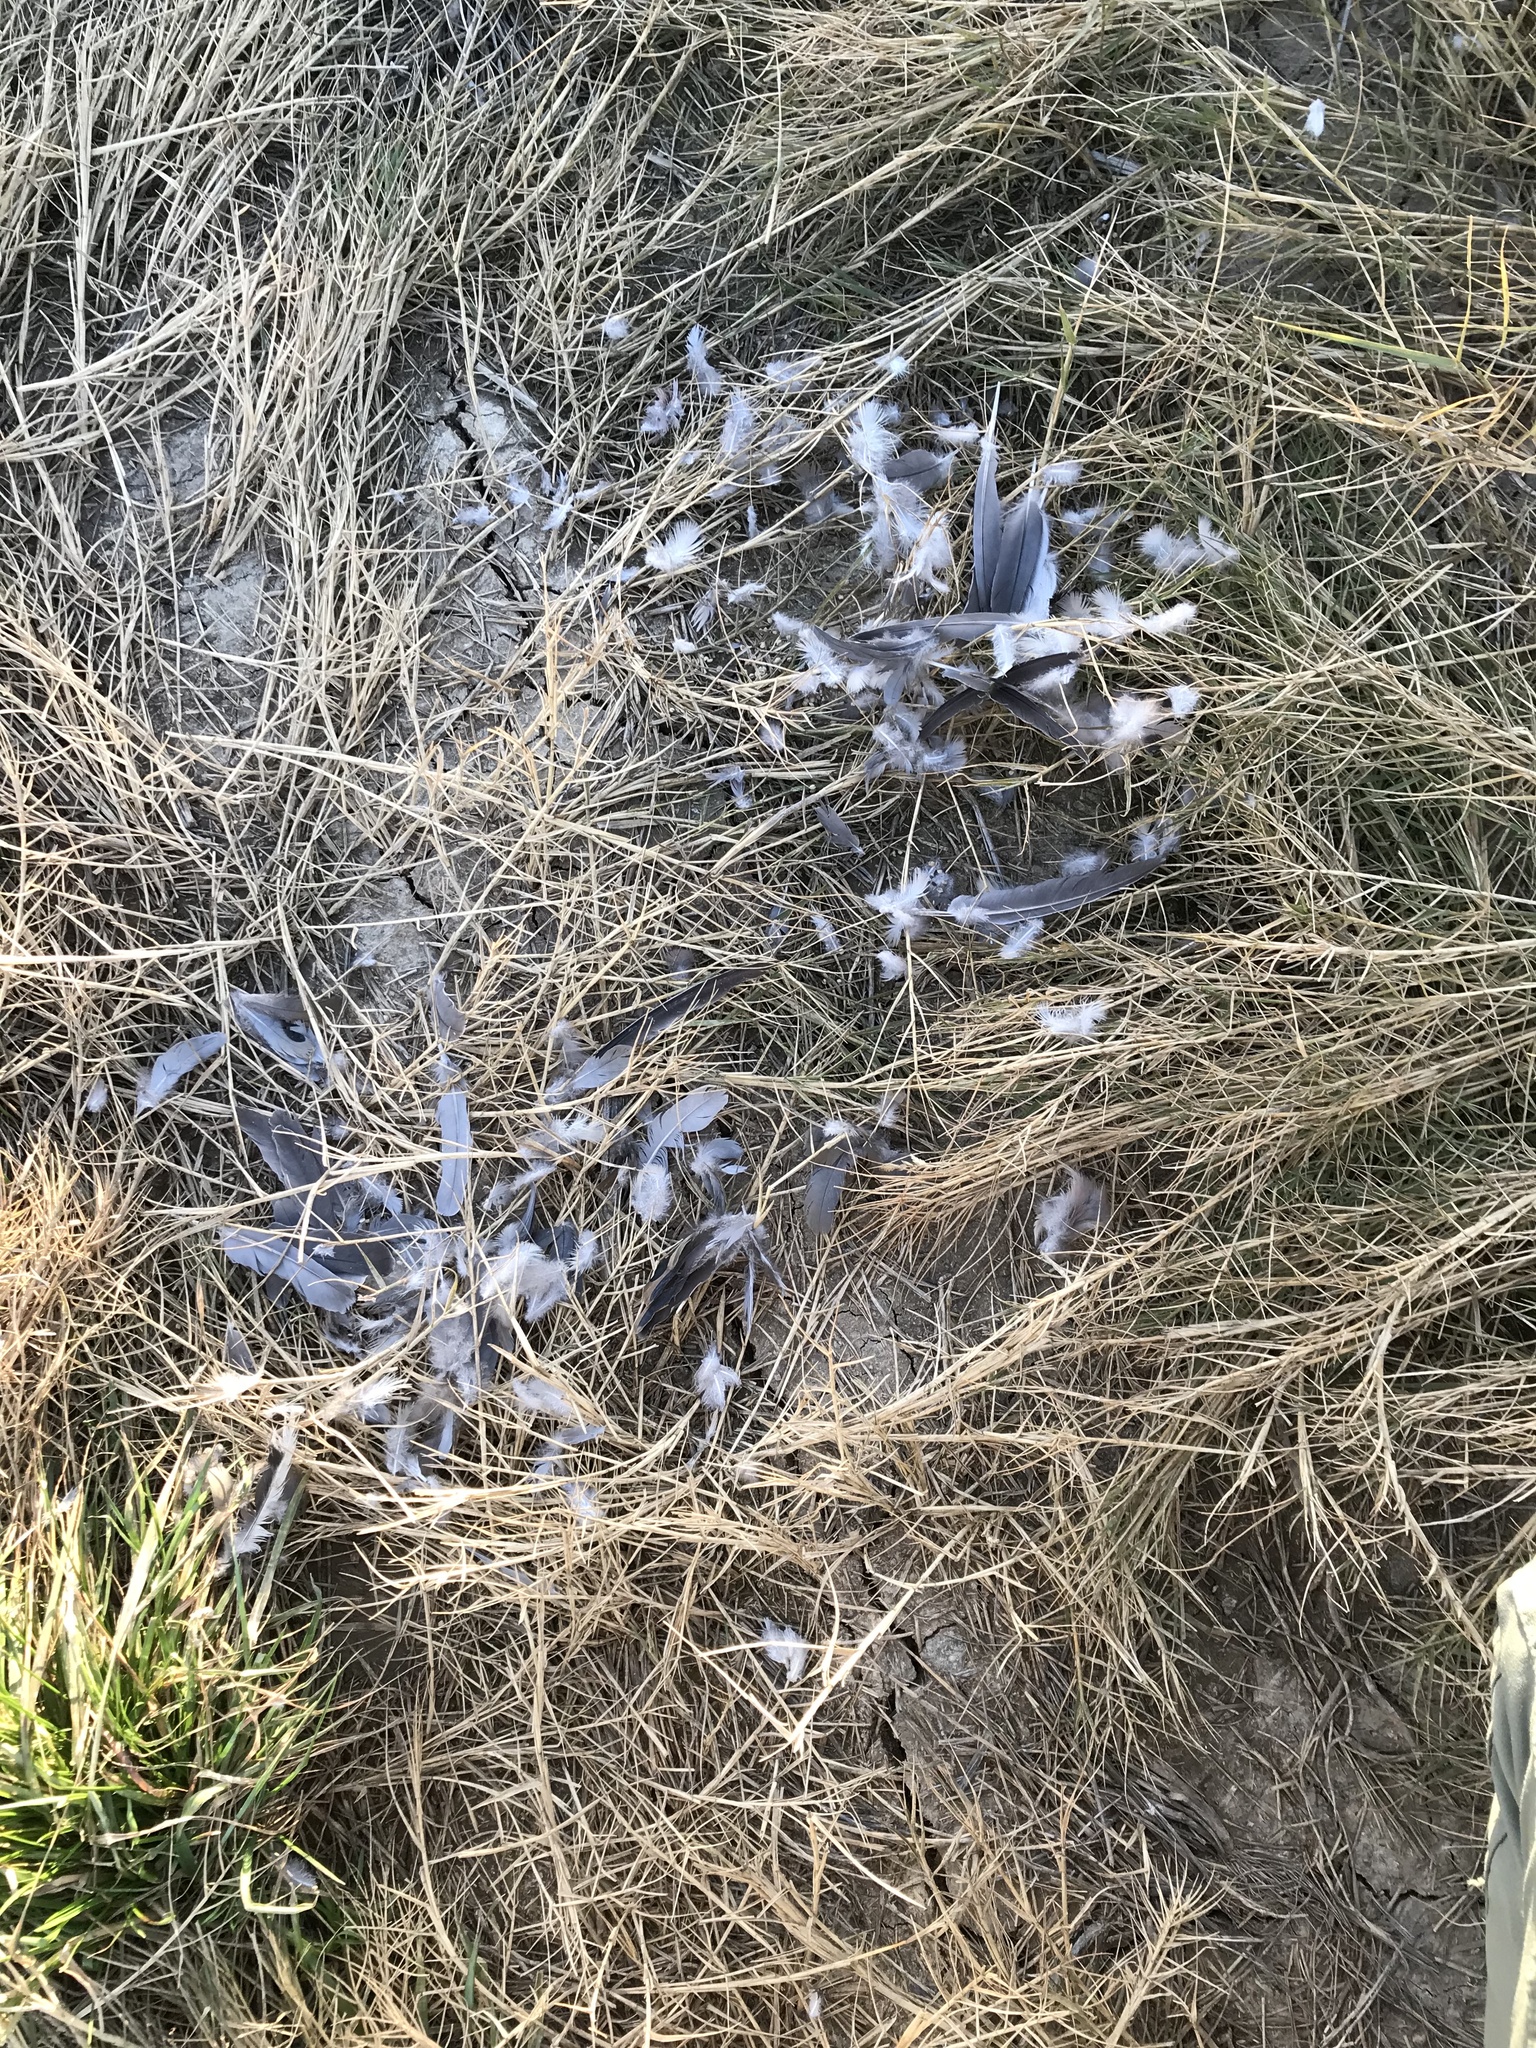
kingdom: Animalia
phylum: Chordata
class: Aves
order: Columbiformes
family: Columbidae
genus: Zenaida
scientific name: Zenaida macroura
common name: Mourning dove
